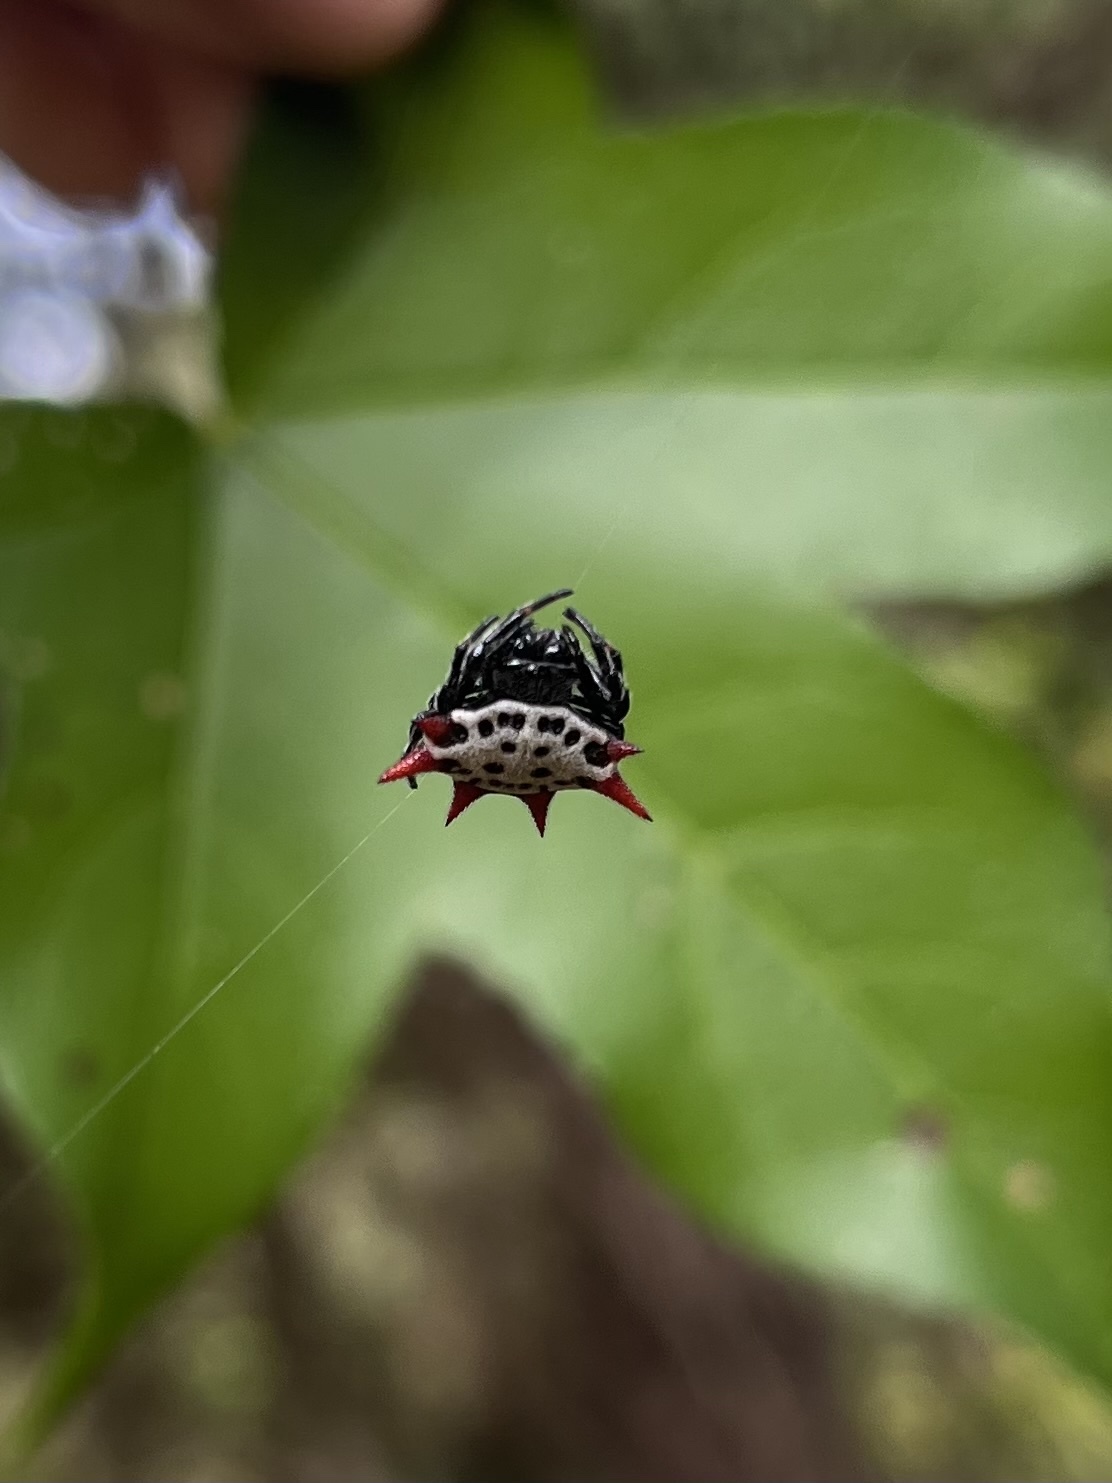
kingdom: Animalia
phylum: Arthropoda
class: Arachnida
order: Araneae
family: Araneidae
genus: Gasteracantha
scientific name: Gasteracantha cancriformis
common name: Orb weavers
